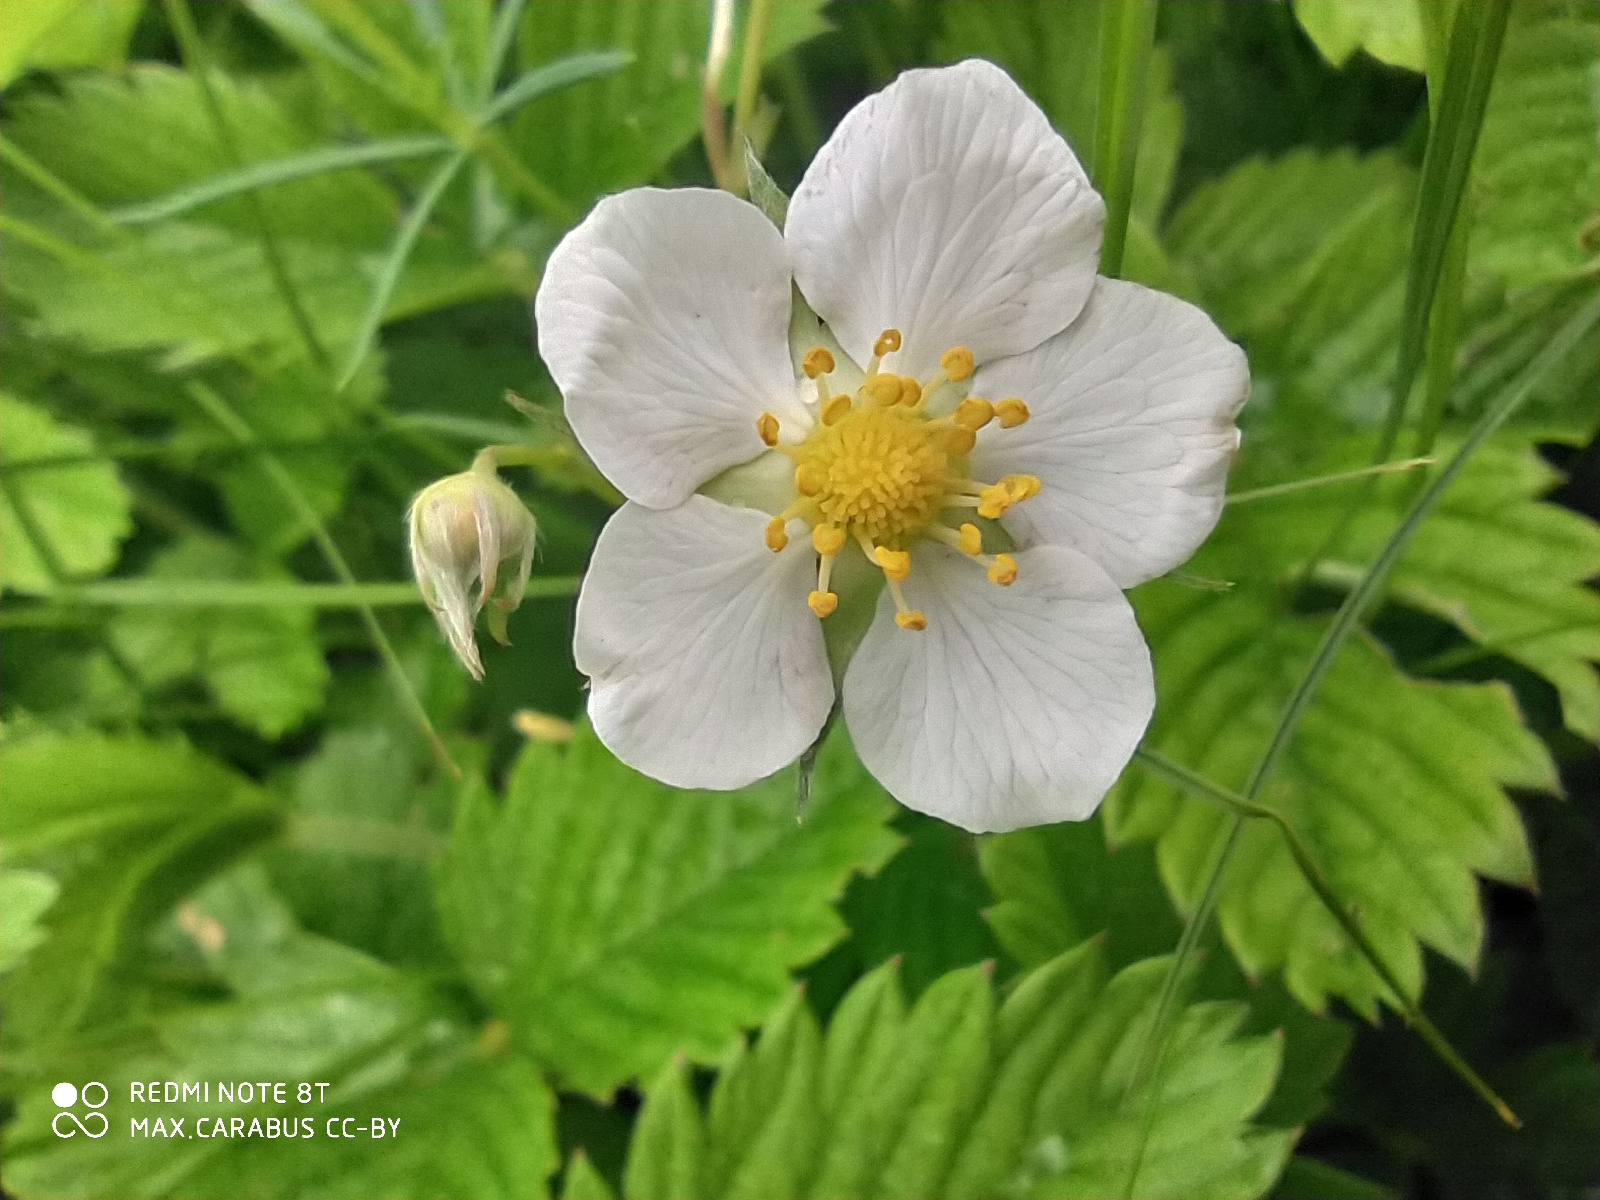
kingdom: Plantae
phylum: Tracheophyta
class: Magnoliopsida
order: Rosales
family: Rosaceae
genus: Fragaria
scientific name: Fragaria viridis
